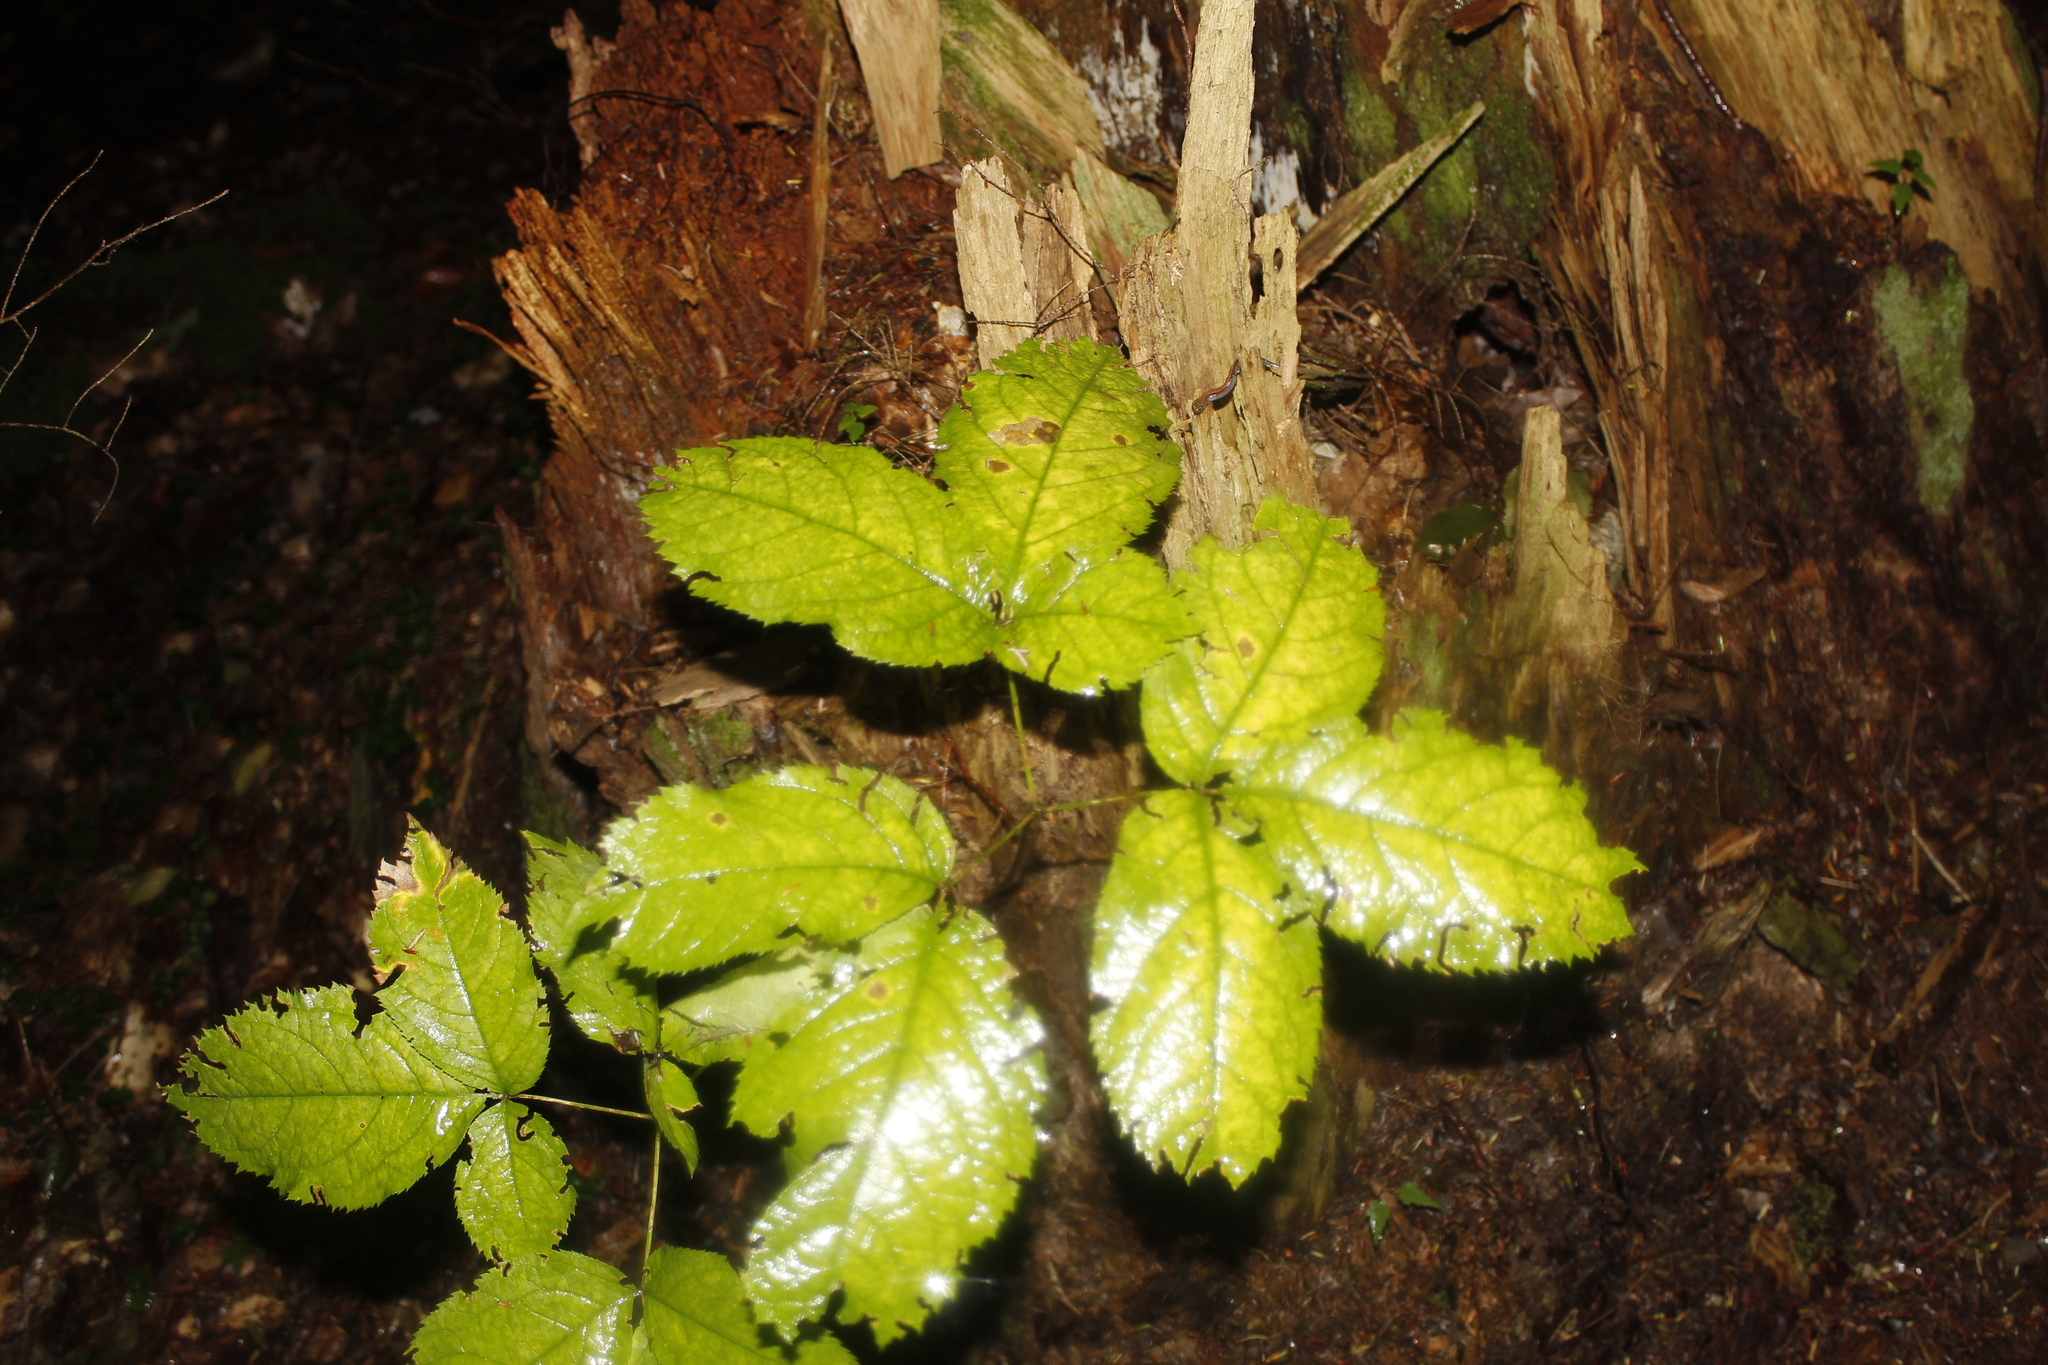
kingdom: Plantae
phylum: Tracheophyta
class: Magnoliopsida
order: Apiales
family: Araliaceae
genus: Aralia
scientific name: Aralia nudicaulis
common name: Wild sarsaparilla
